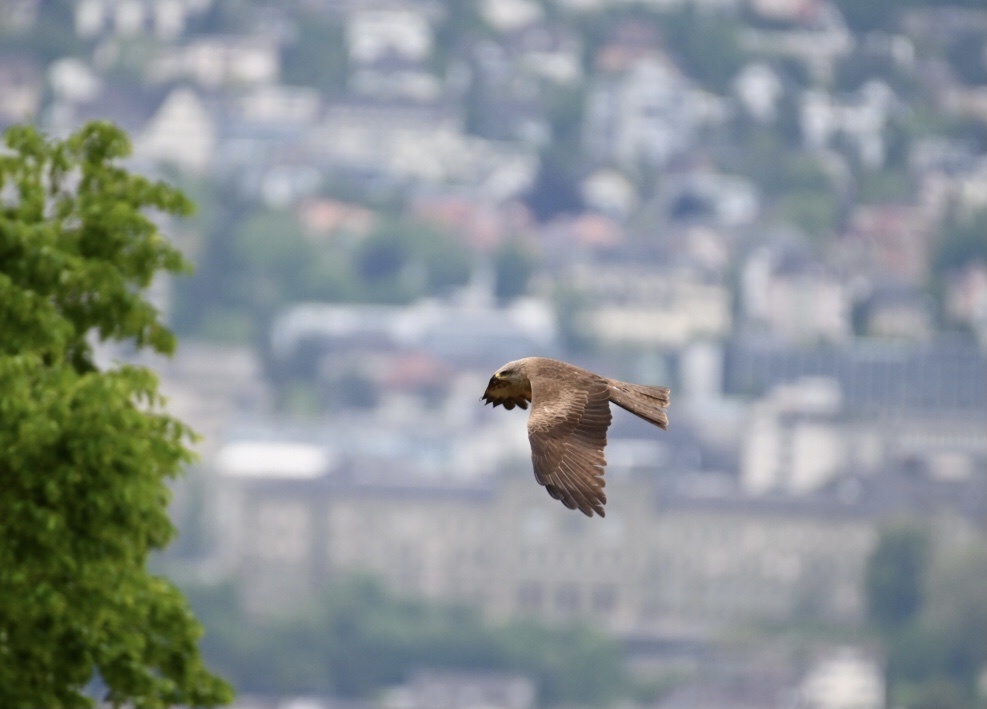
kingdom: Animalia
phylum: Chordata
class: Aves
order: Accipitriformes
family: Accipitridae
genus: Milvus
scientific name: Milvus migrans
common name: Black kite
